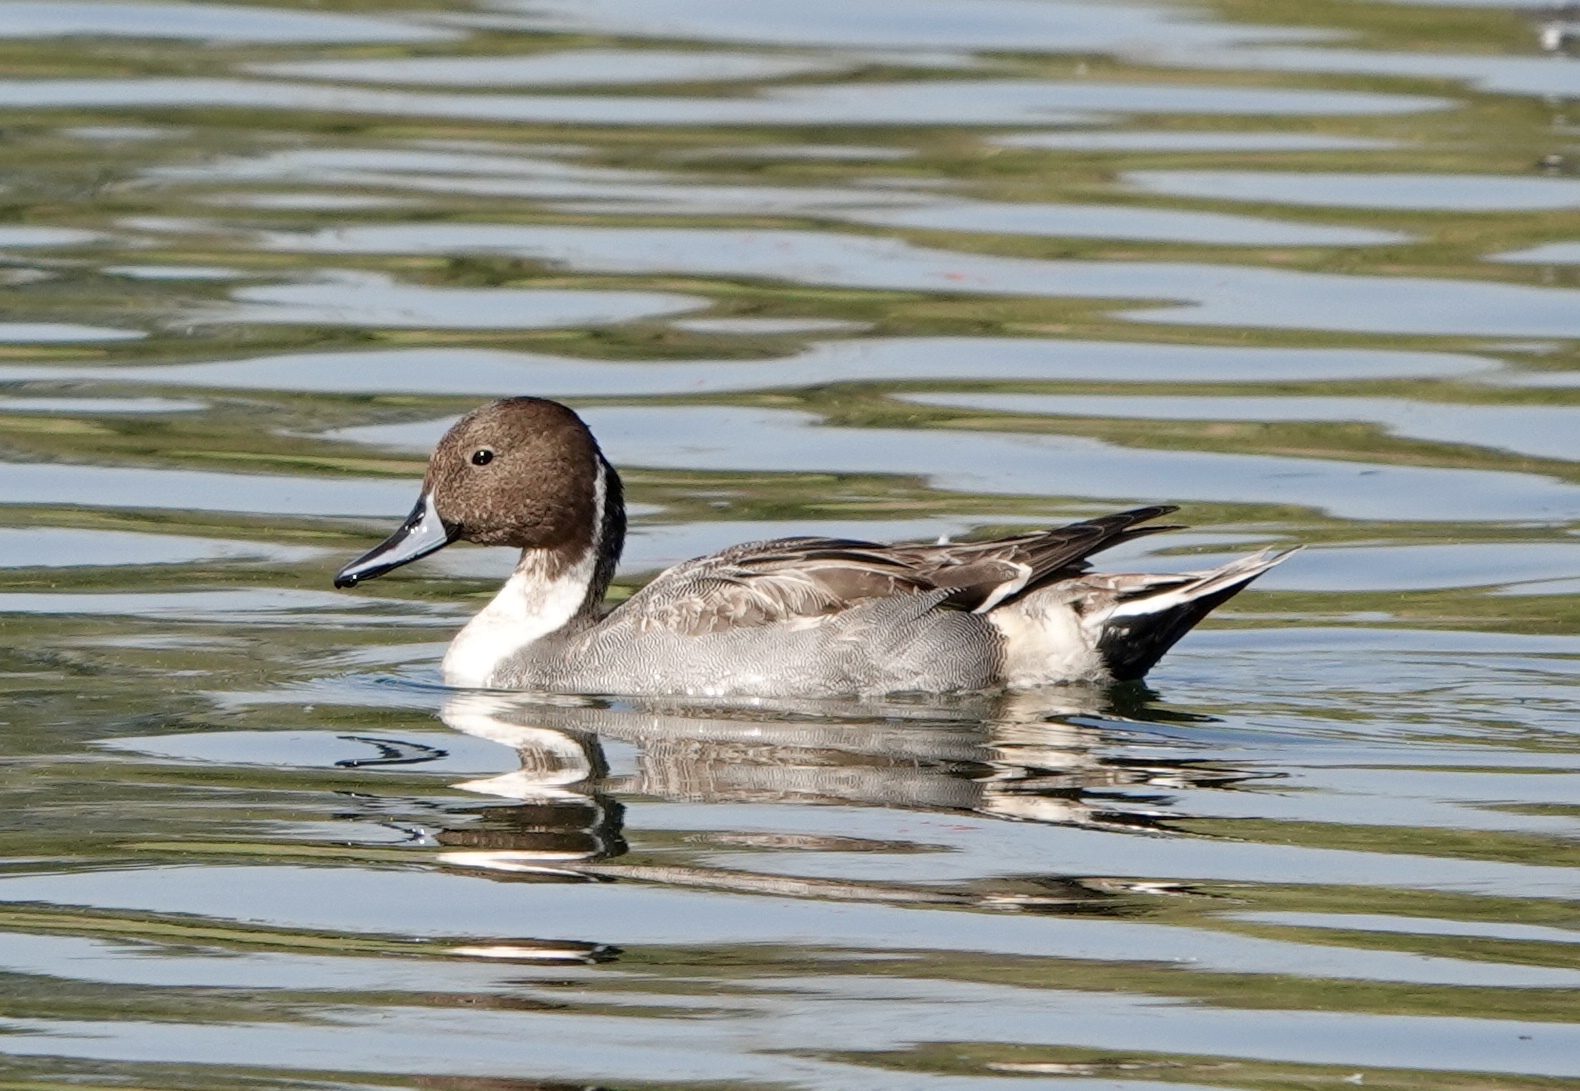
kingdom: Animalia
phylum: Chordata
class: Aves
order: Anseriformes
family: Anatidae
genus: Anas
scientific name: Anas acuta
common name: Northern pintail
